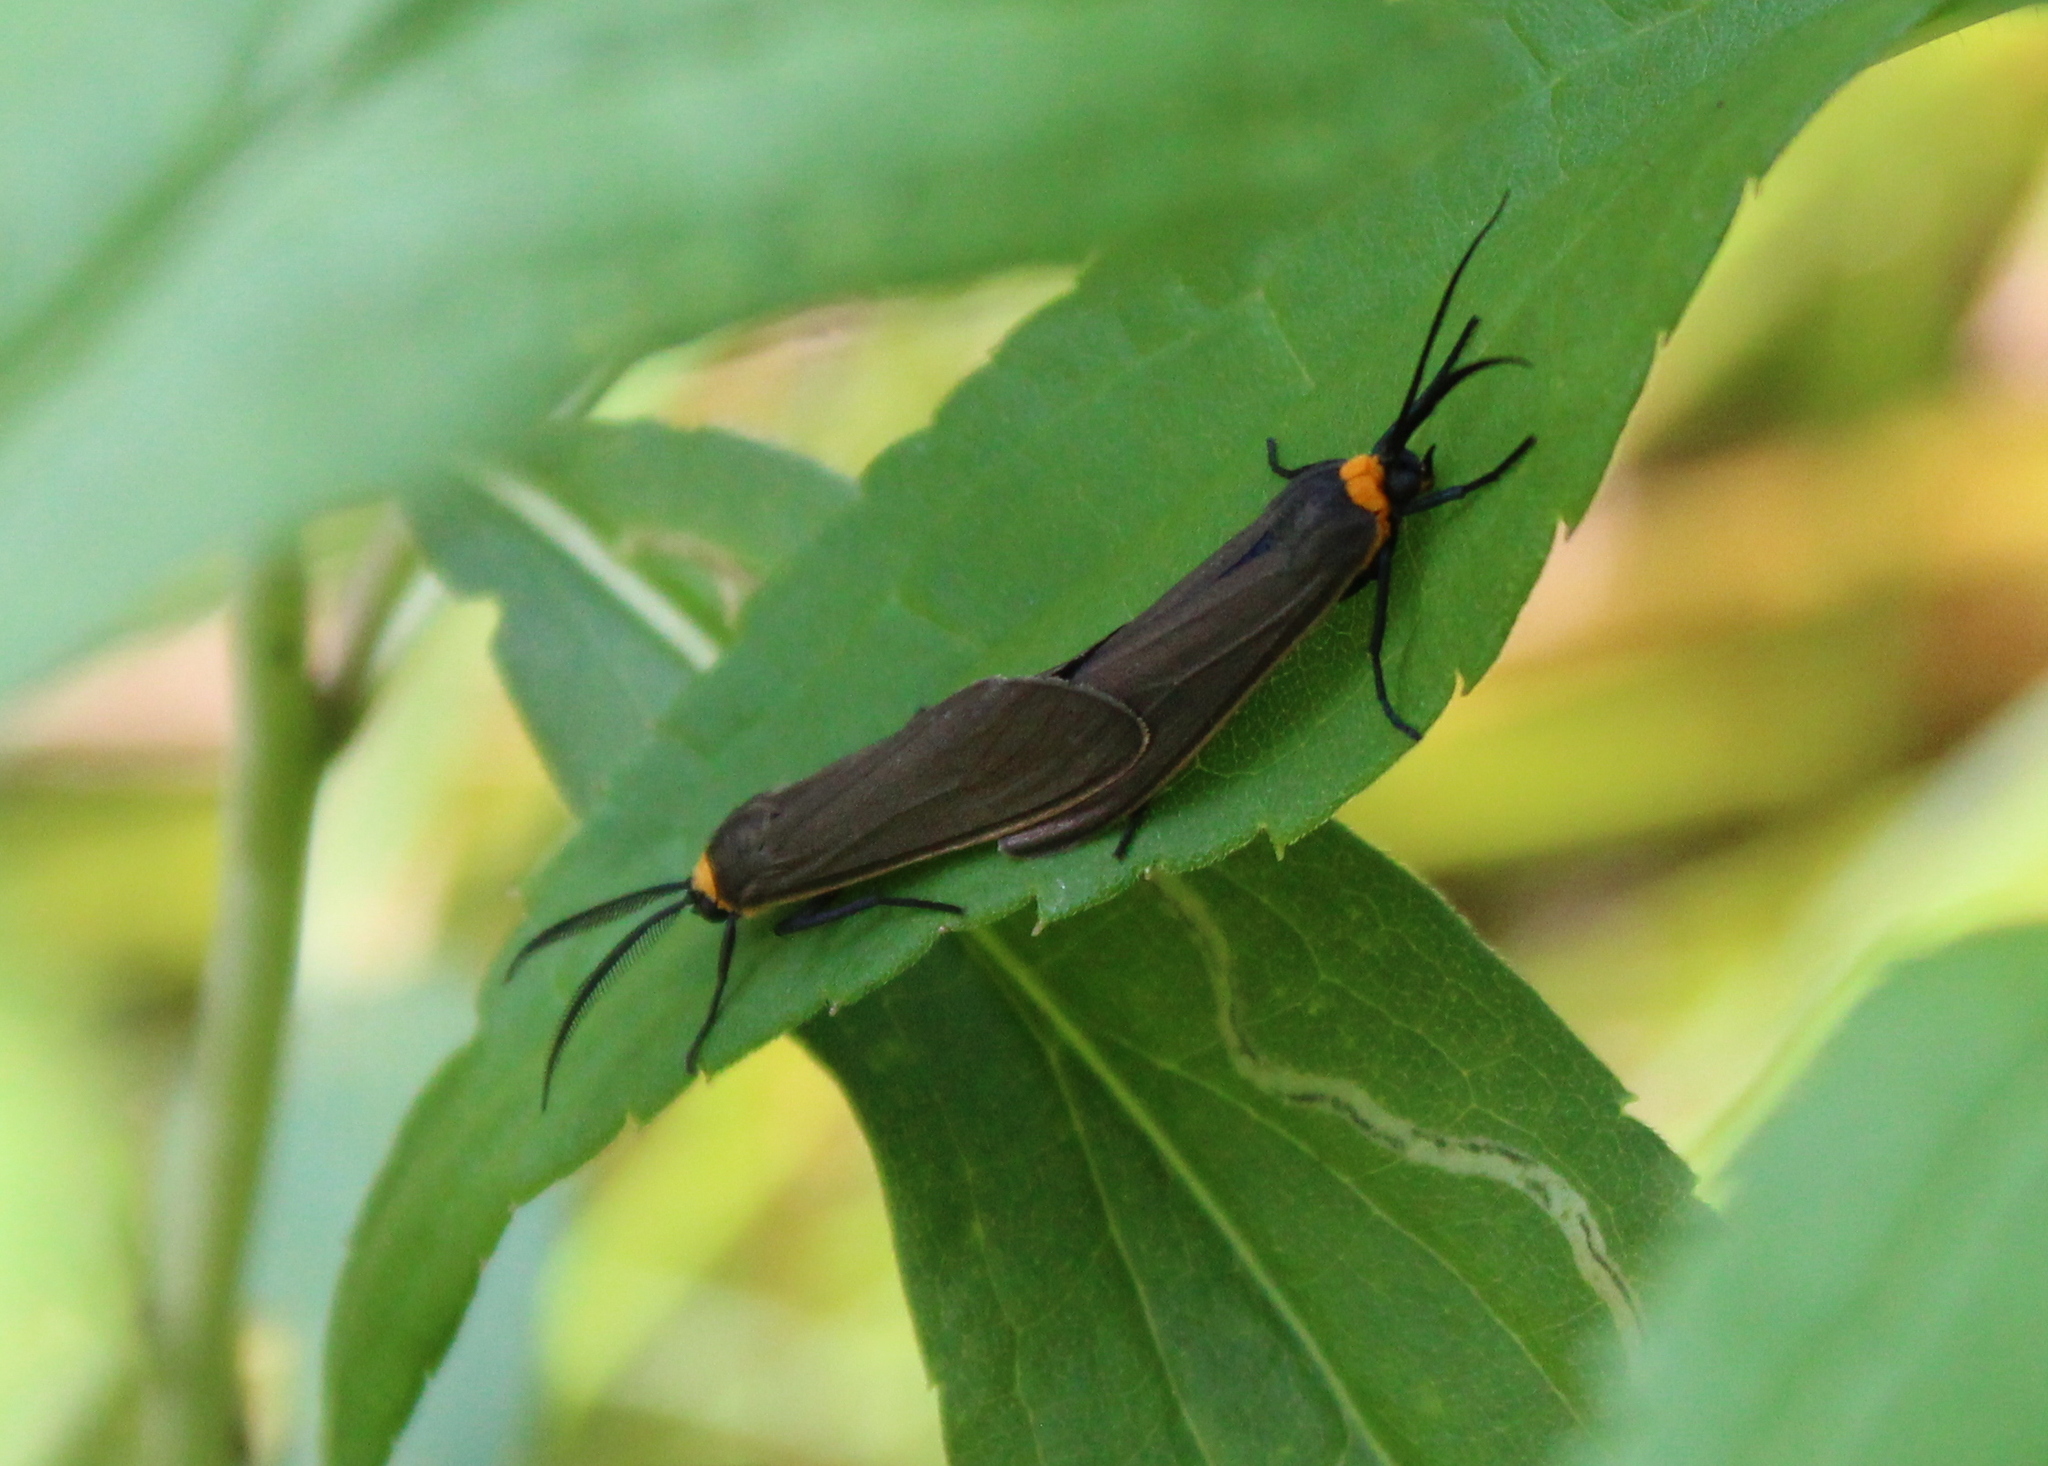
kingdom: Animalia
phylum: Arthropoda
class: Insecta
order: Lepidoptera
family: Erebidae
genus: Cisseps
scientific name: Cisseps fulvicollis
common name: Yellow-collared scape moth
